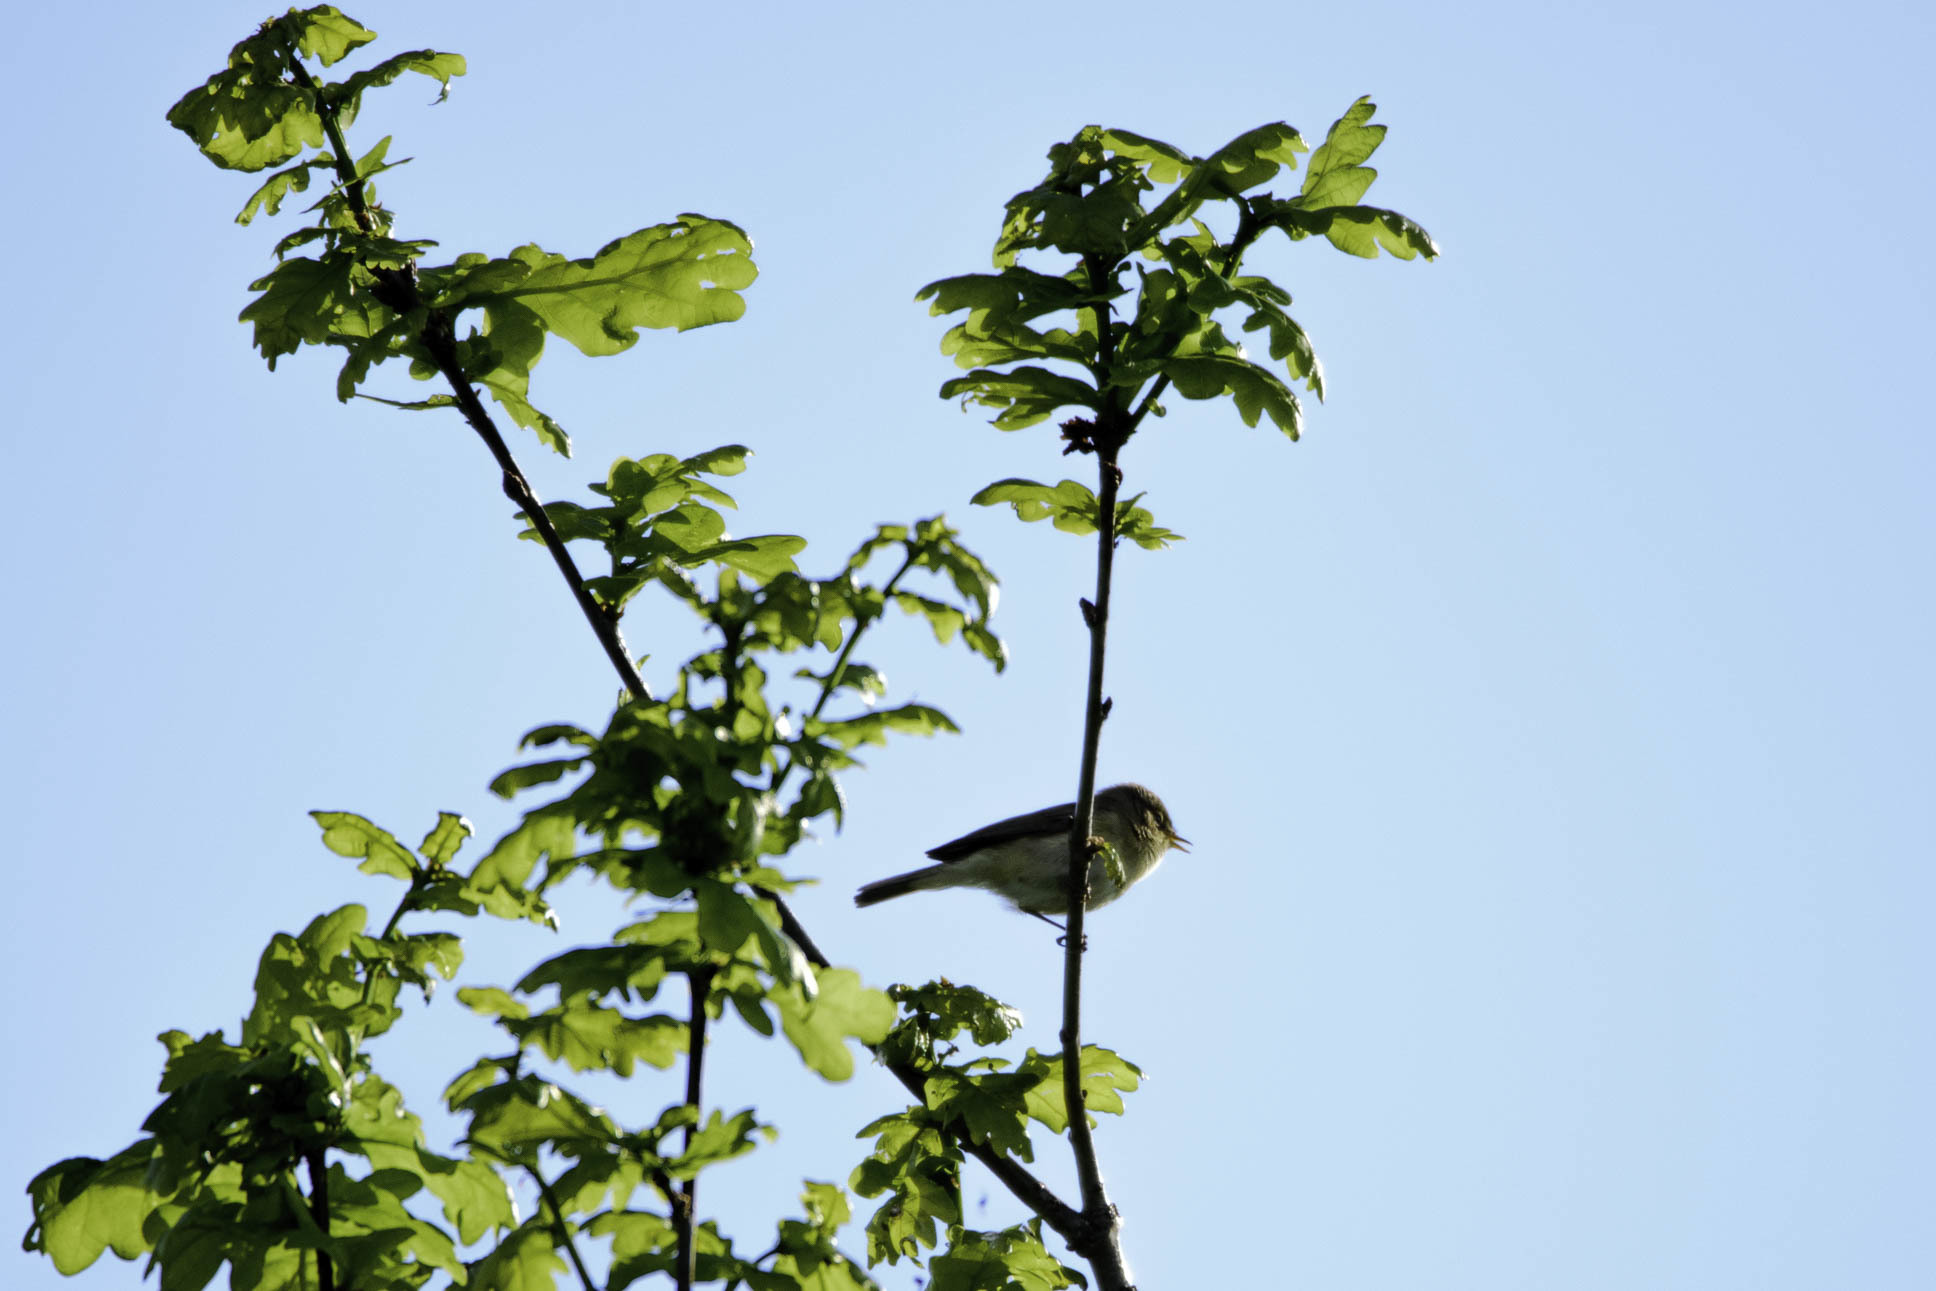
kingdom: Animalia
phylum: Chordata
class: Aves
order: Passeriformes
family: Phylloscopidae
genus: Phylloscopus
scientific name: Phylloscopus collybita
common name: Common chiffchaff
